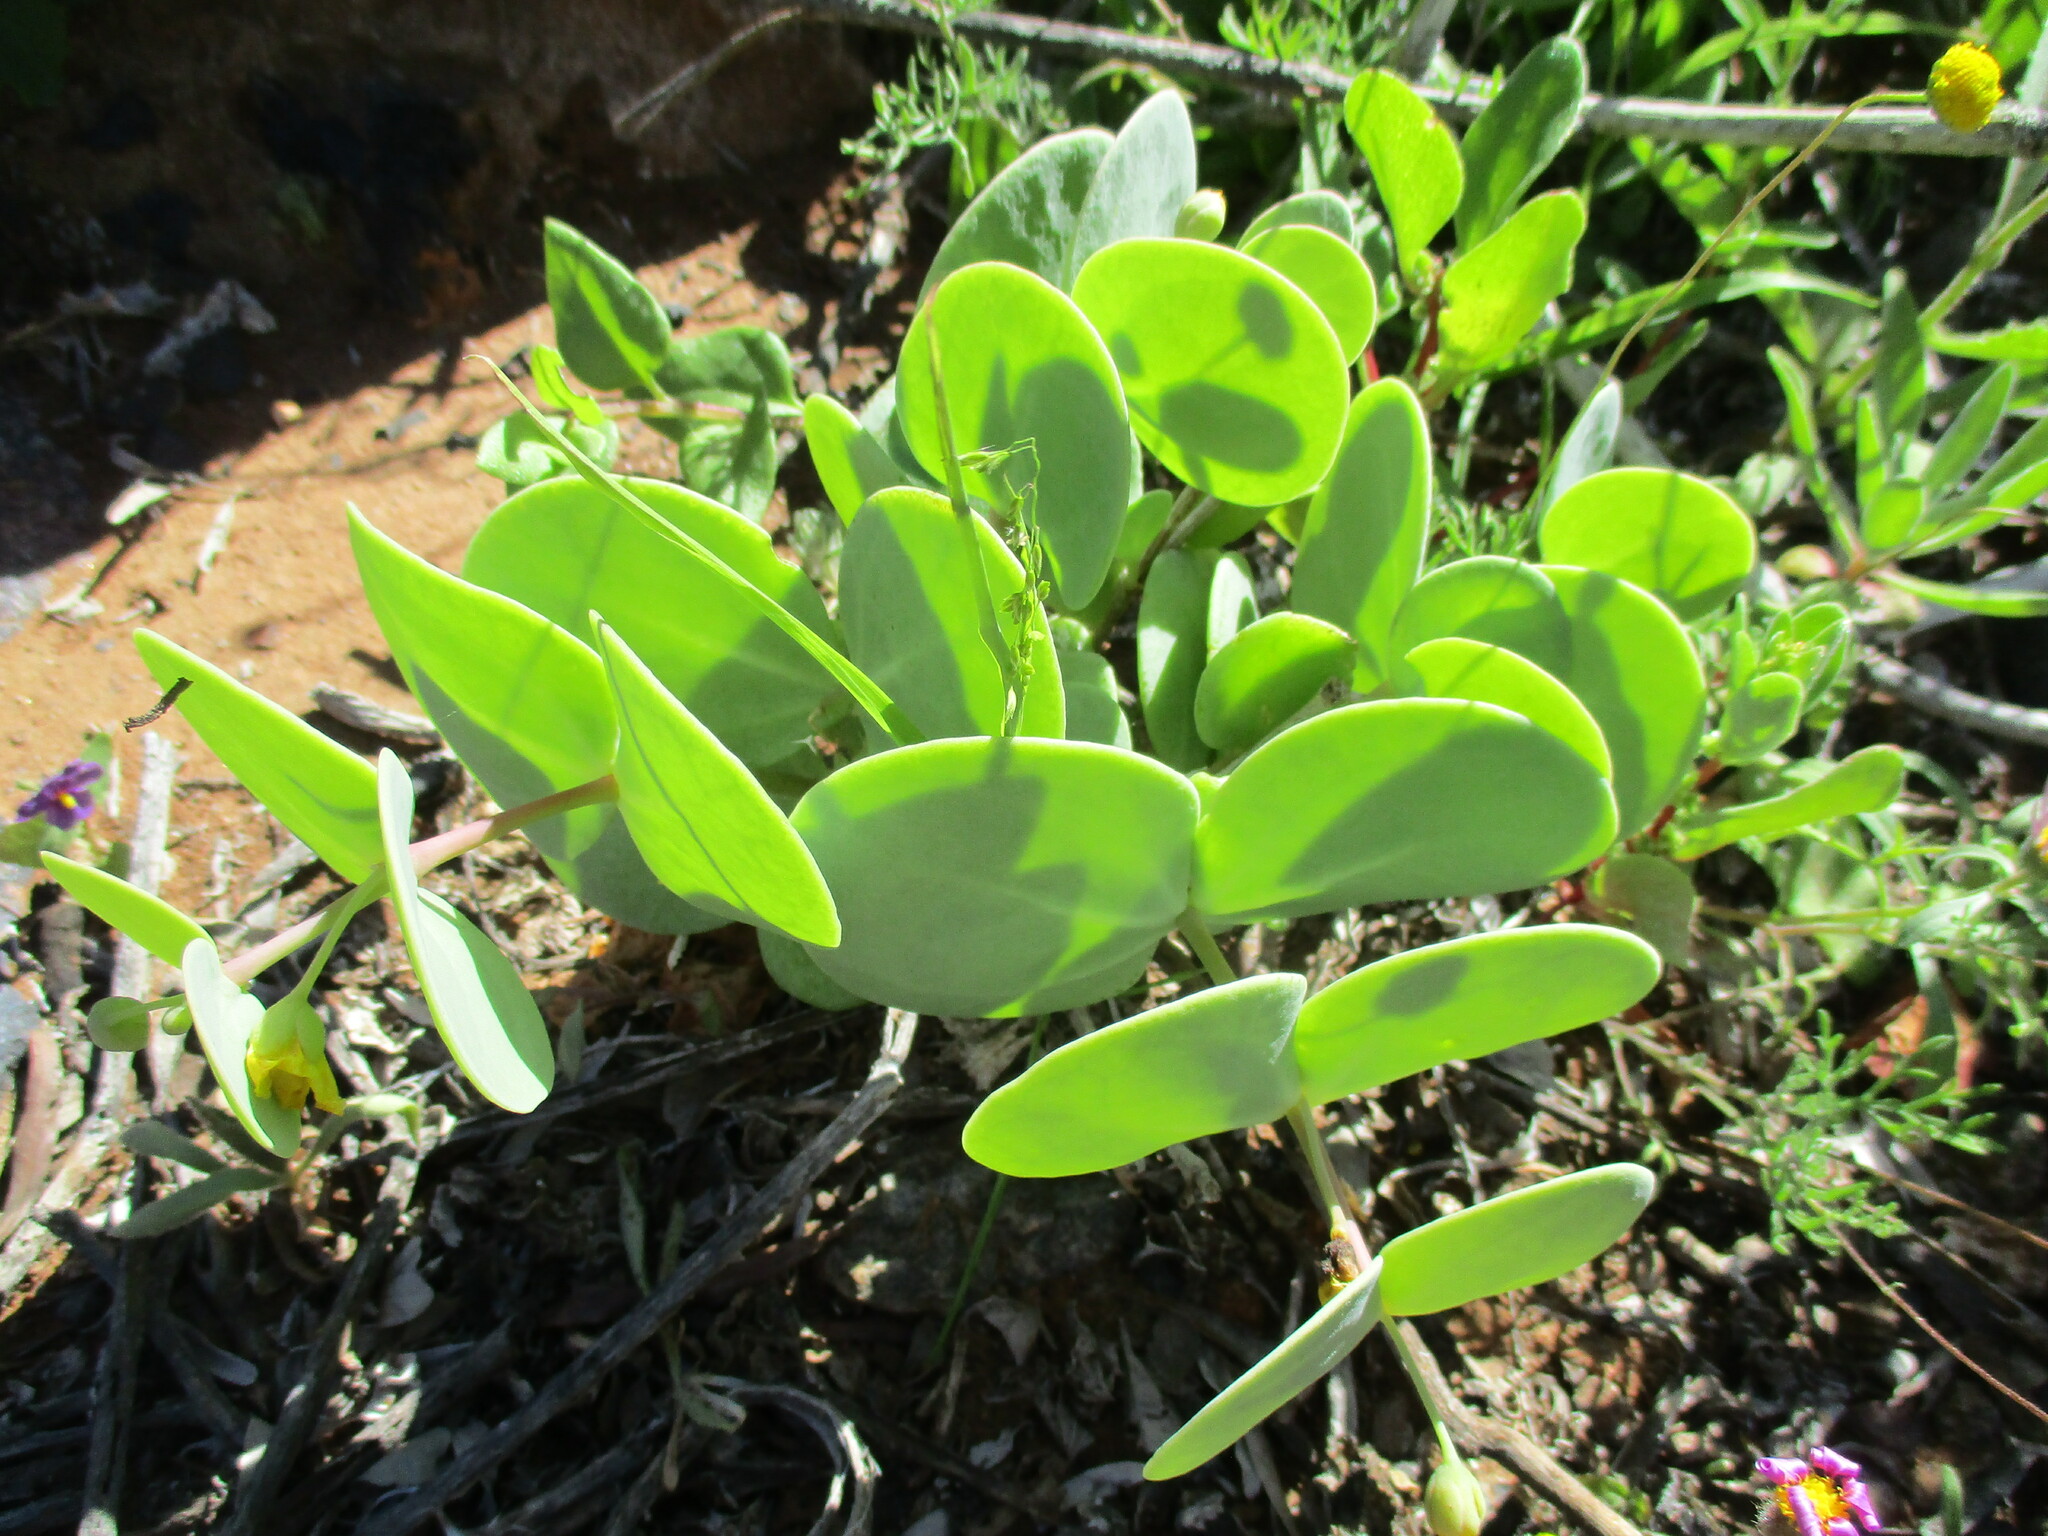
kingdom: Plantae
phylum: Tracheophyta
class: Magnoliopsida
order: Zygophyllales
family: Zygophyllaceae
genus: Roepera
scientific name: Roepera cordifolia
